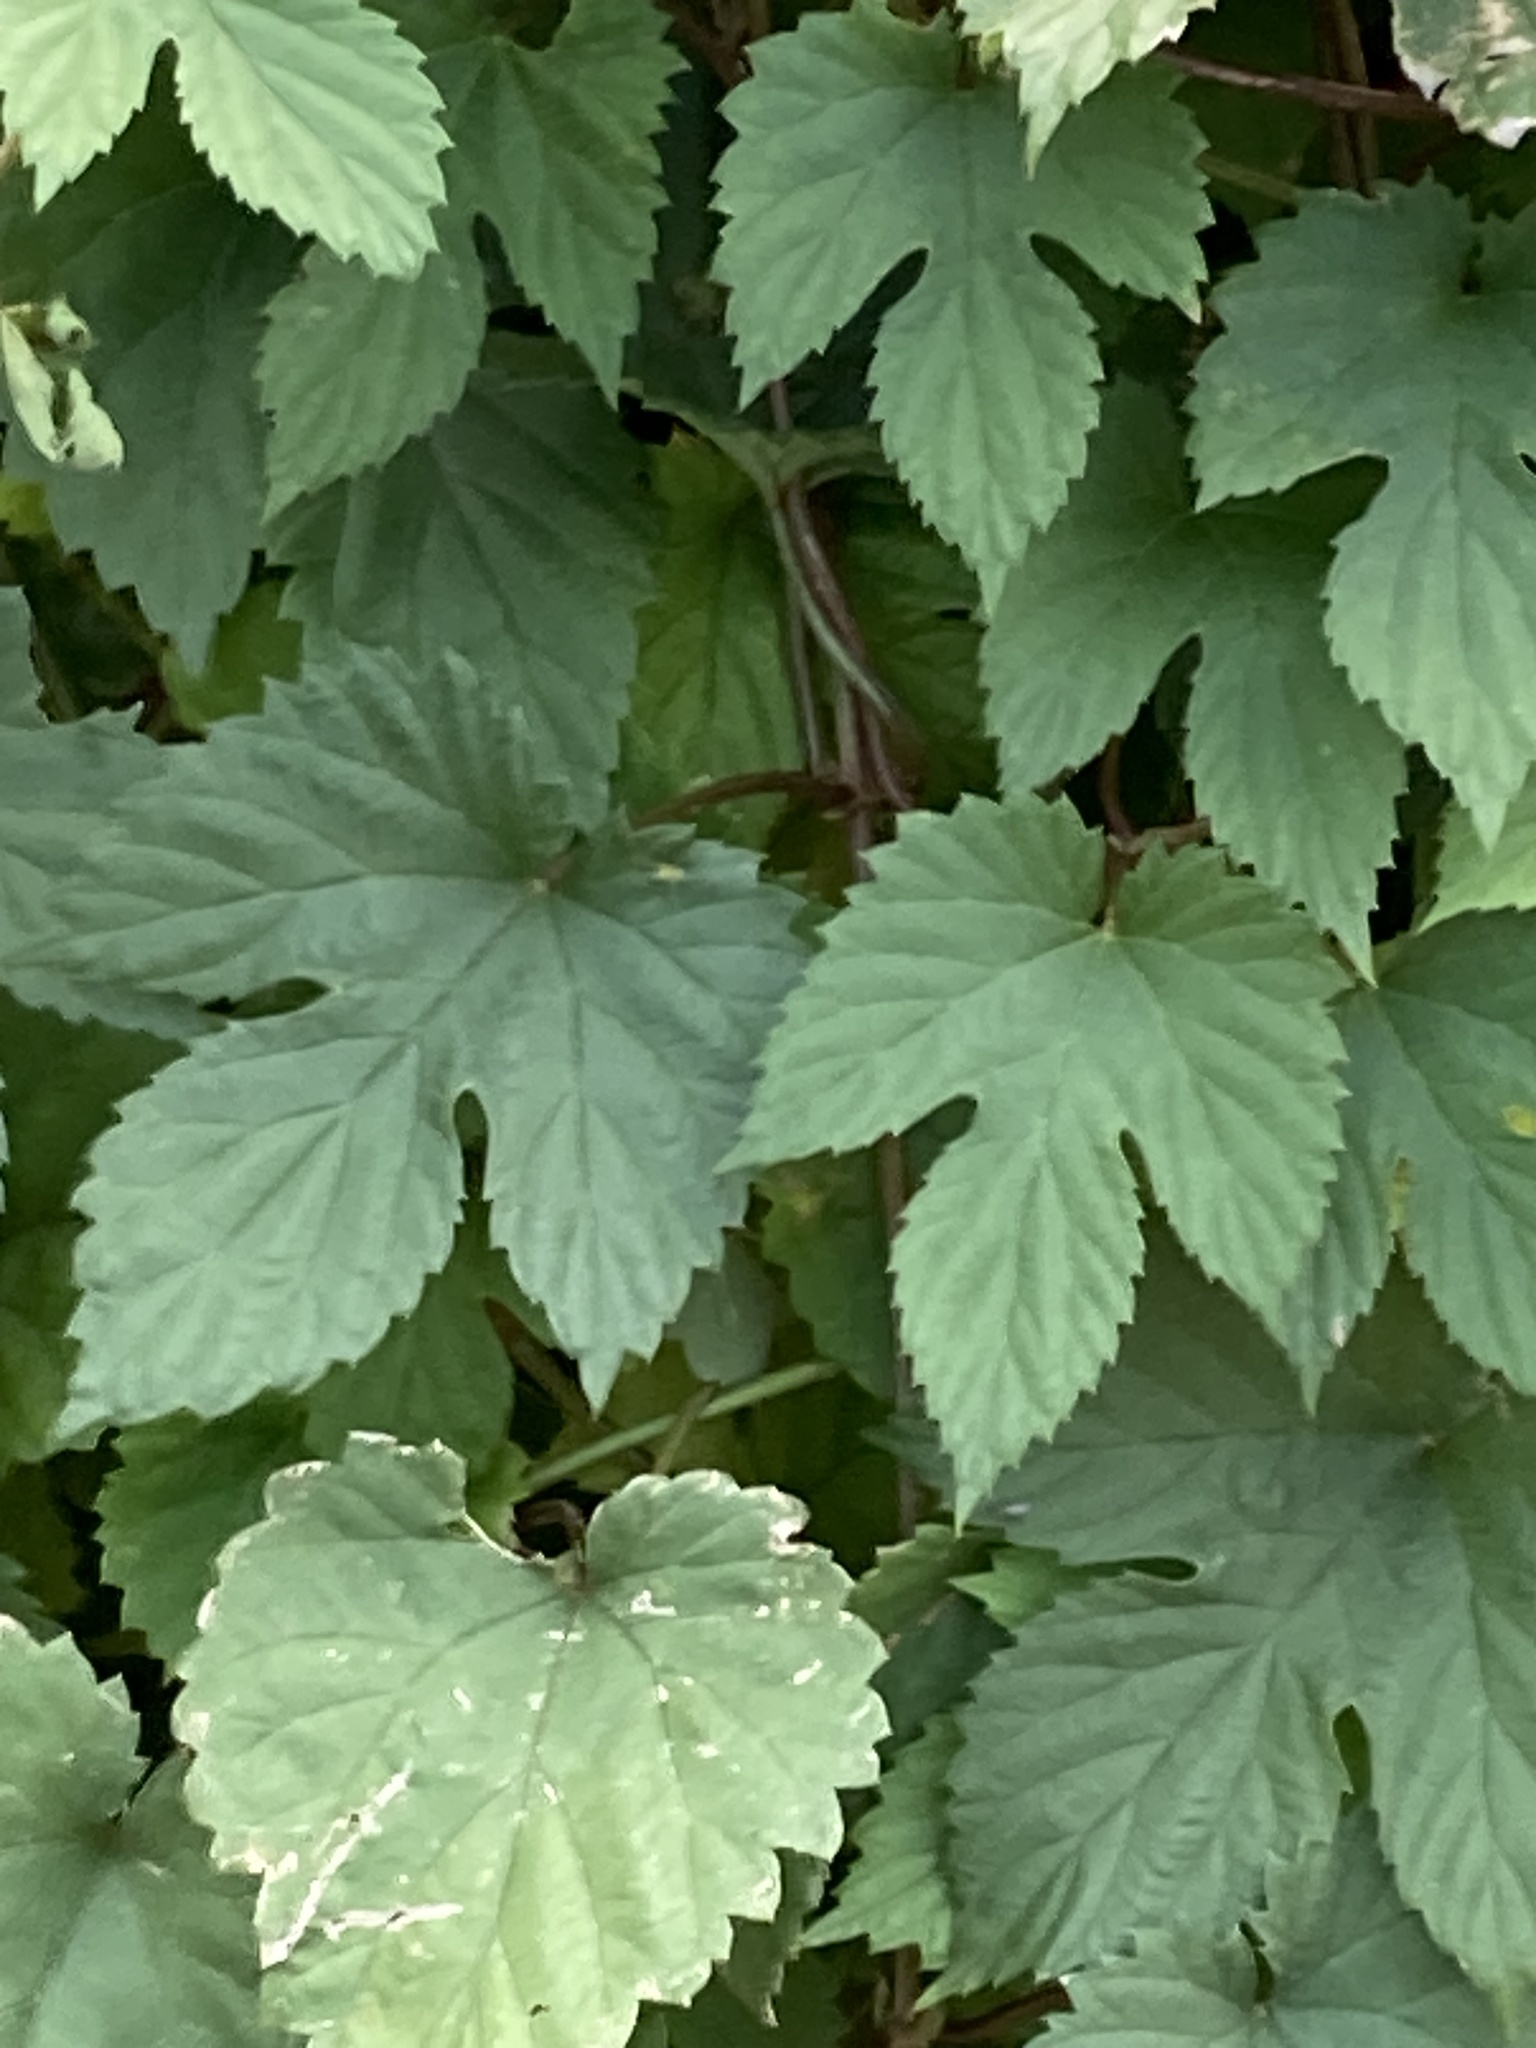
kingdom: Plantae
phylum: Tracheophyta
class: Magnoliopsida
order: Rosales
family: Cannabaceae
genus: Humulus
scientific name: Humulus lupulus
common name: Hop
